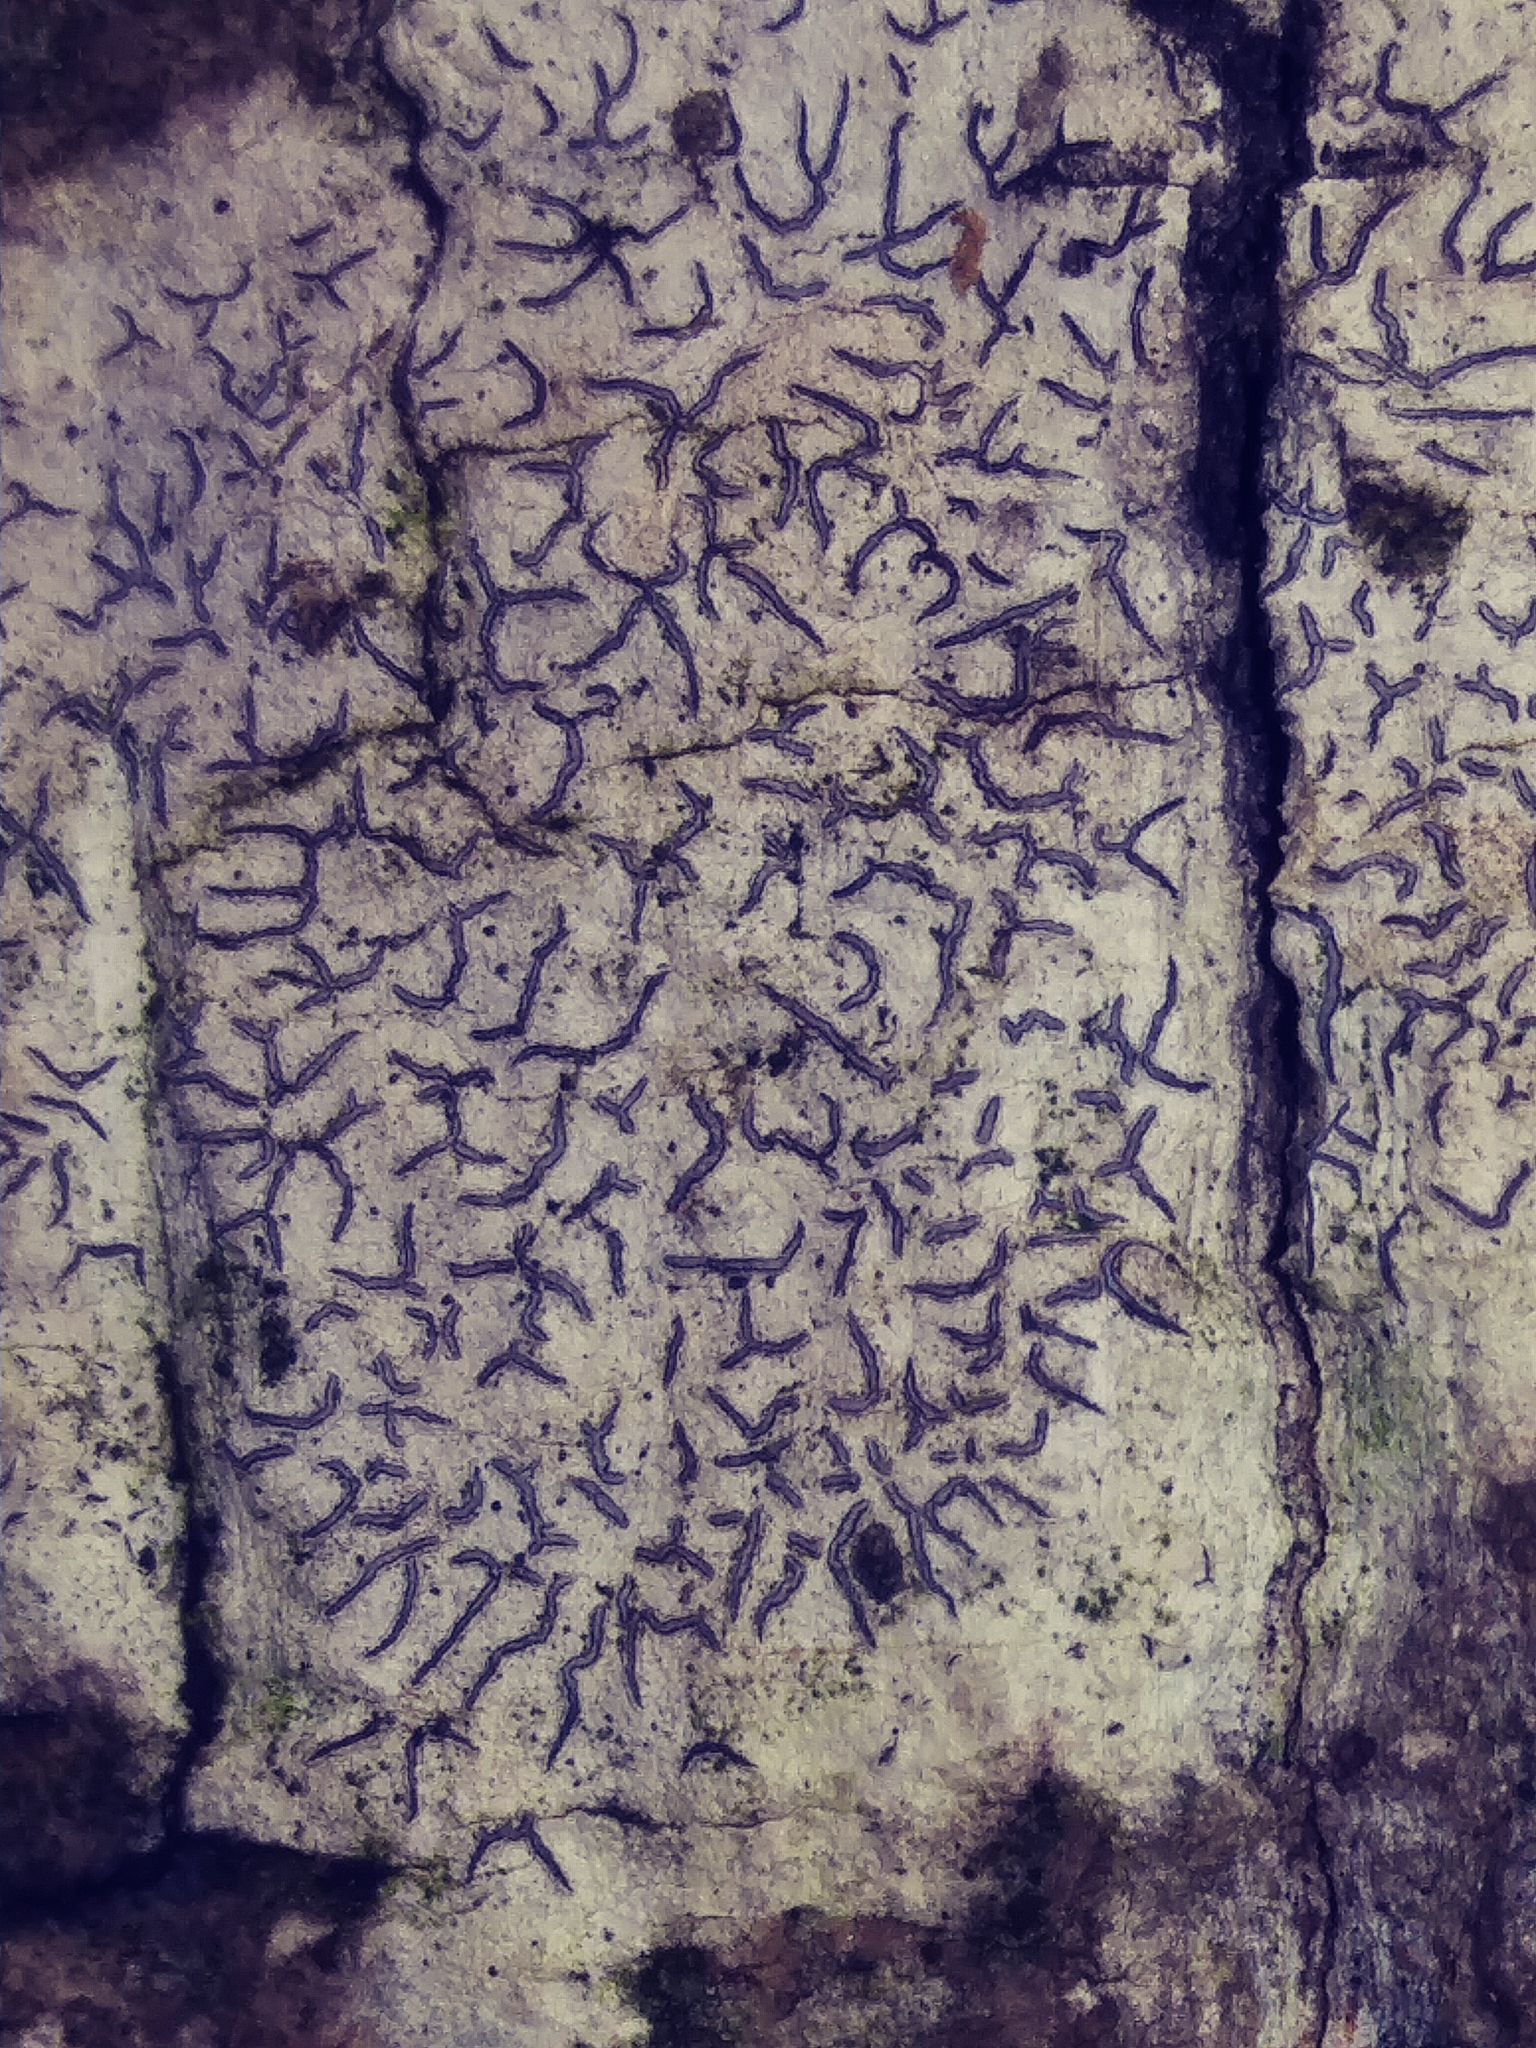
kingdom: Fungi
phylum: Ascomycota
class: Lecanoromycetes
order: Ostropales
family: Graphidaceae
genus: Graphis
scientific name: Graphis scripta
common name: Script lichen
